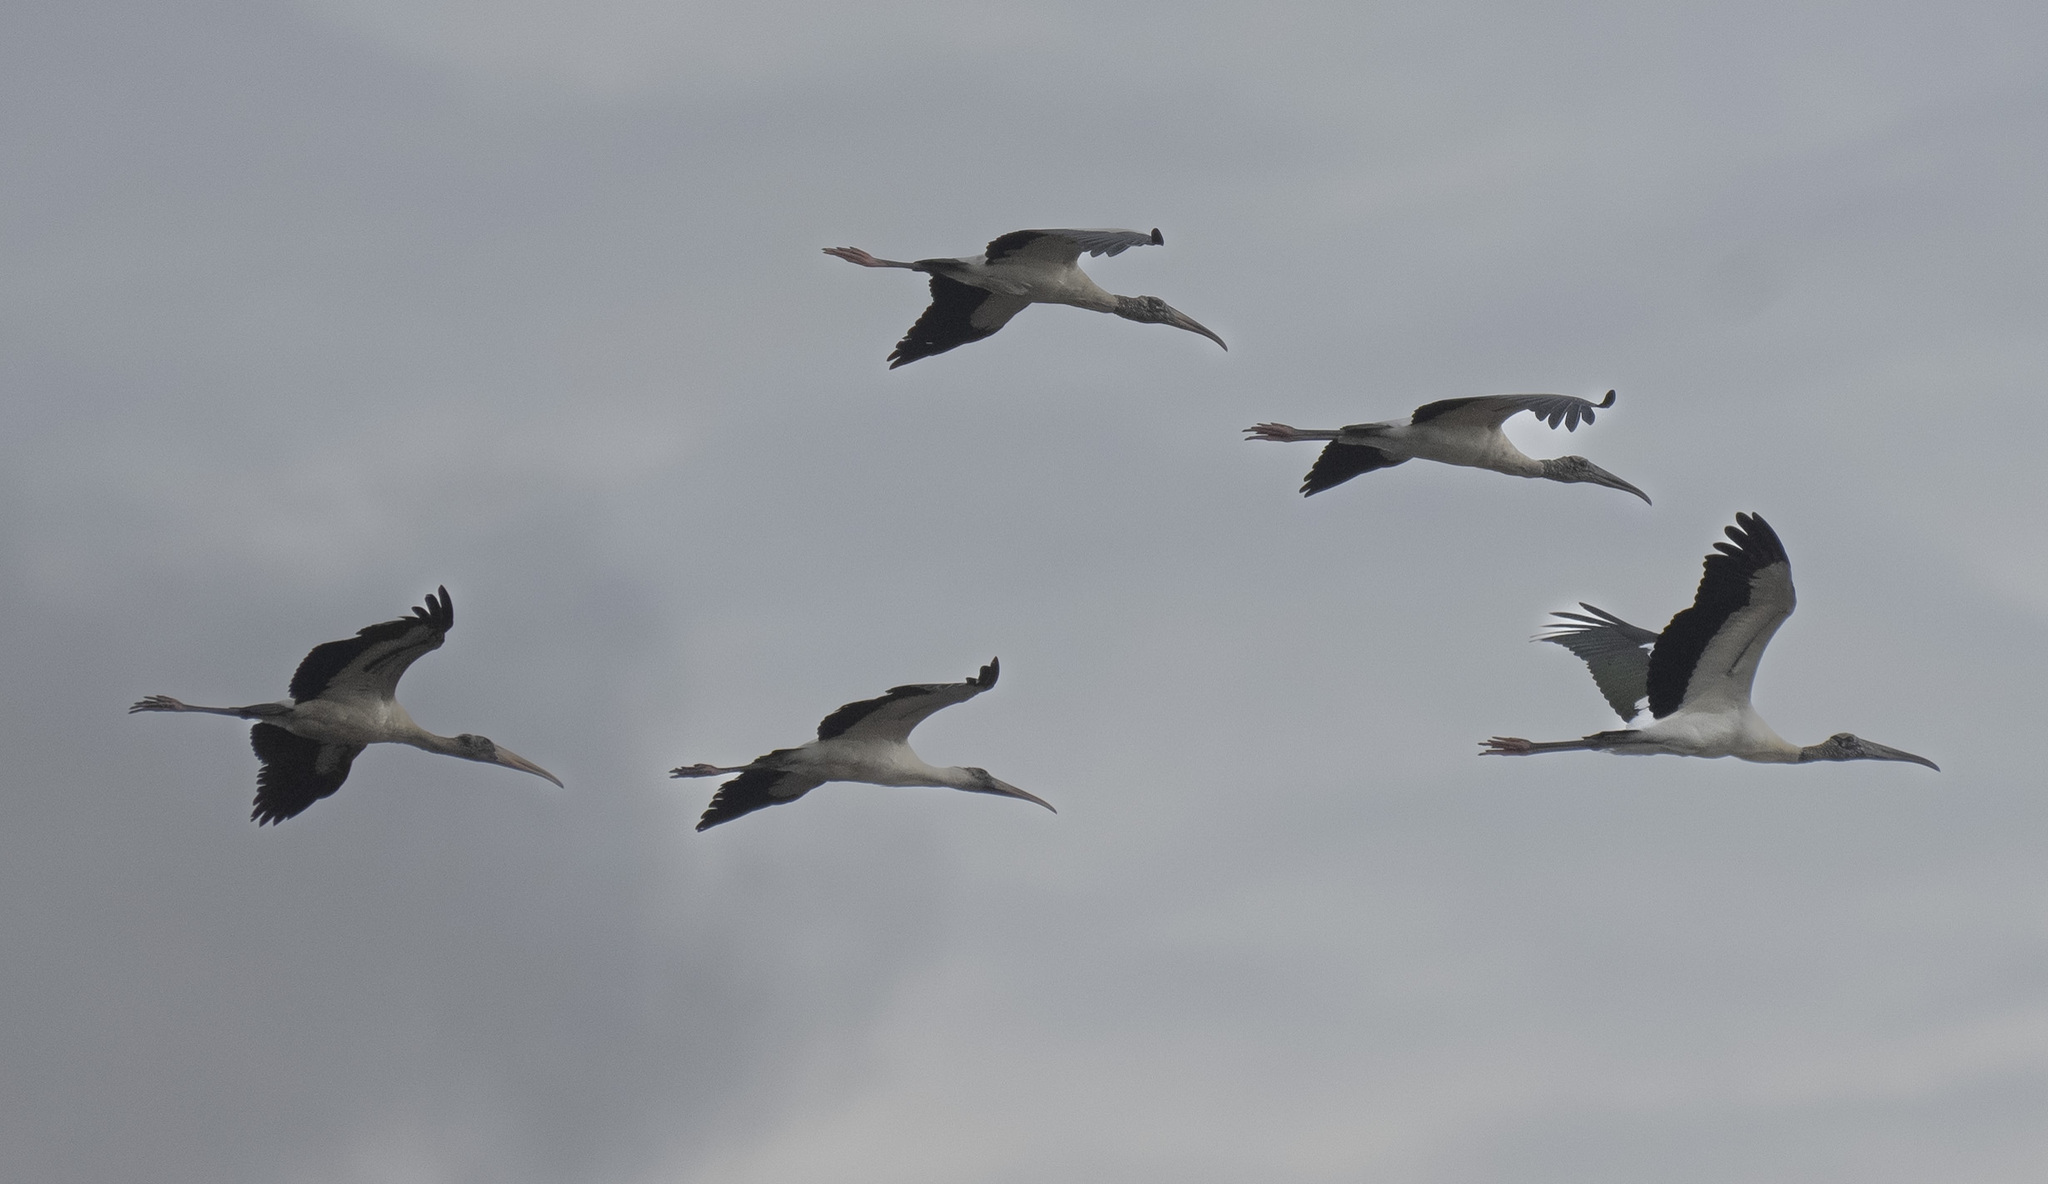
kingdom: Animalia
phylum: Chordata
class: Aves
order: Ciconiiformes
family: Ciconiidae
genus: Mycteria
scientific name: Mycteria americana
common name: Wood stork
